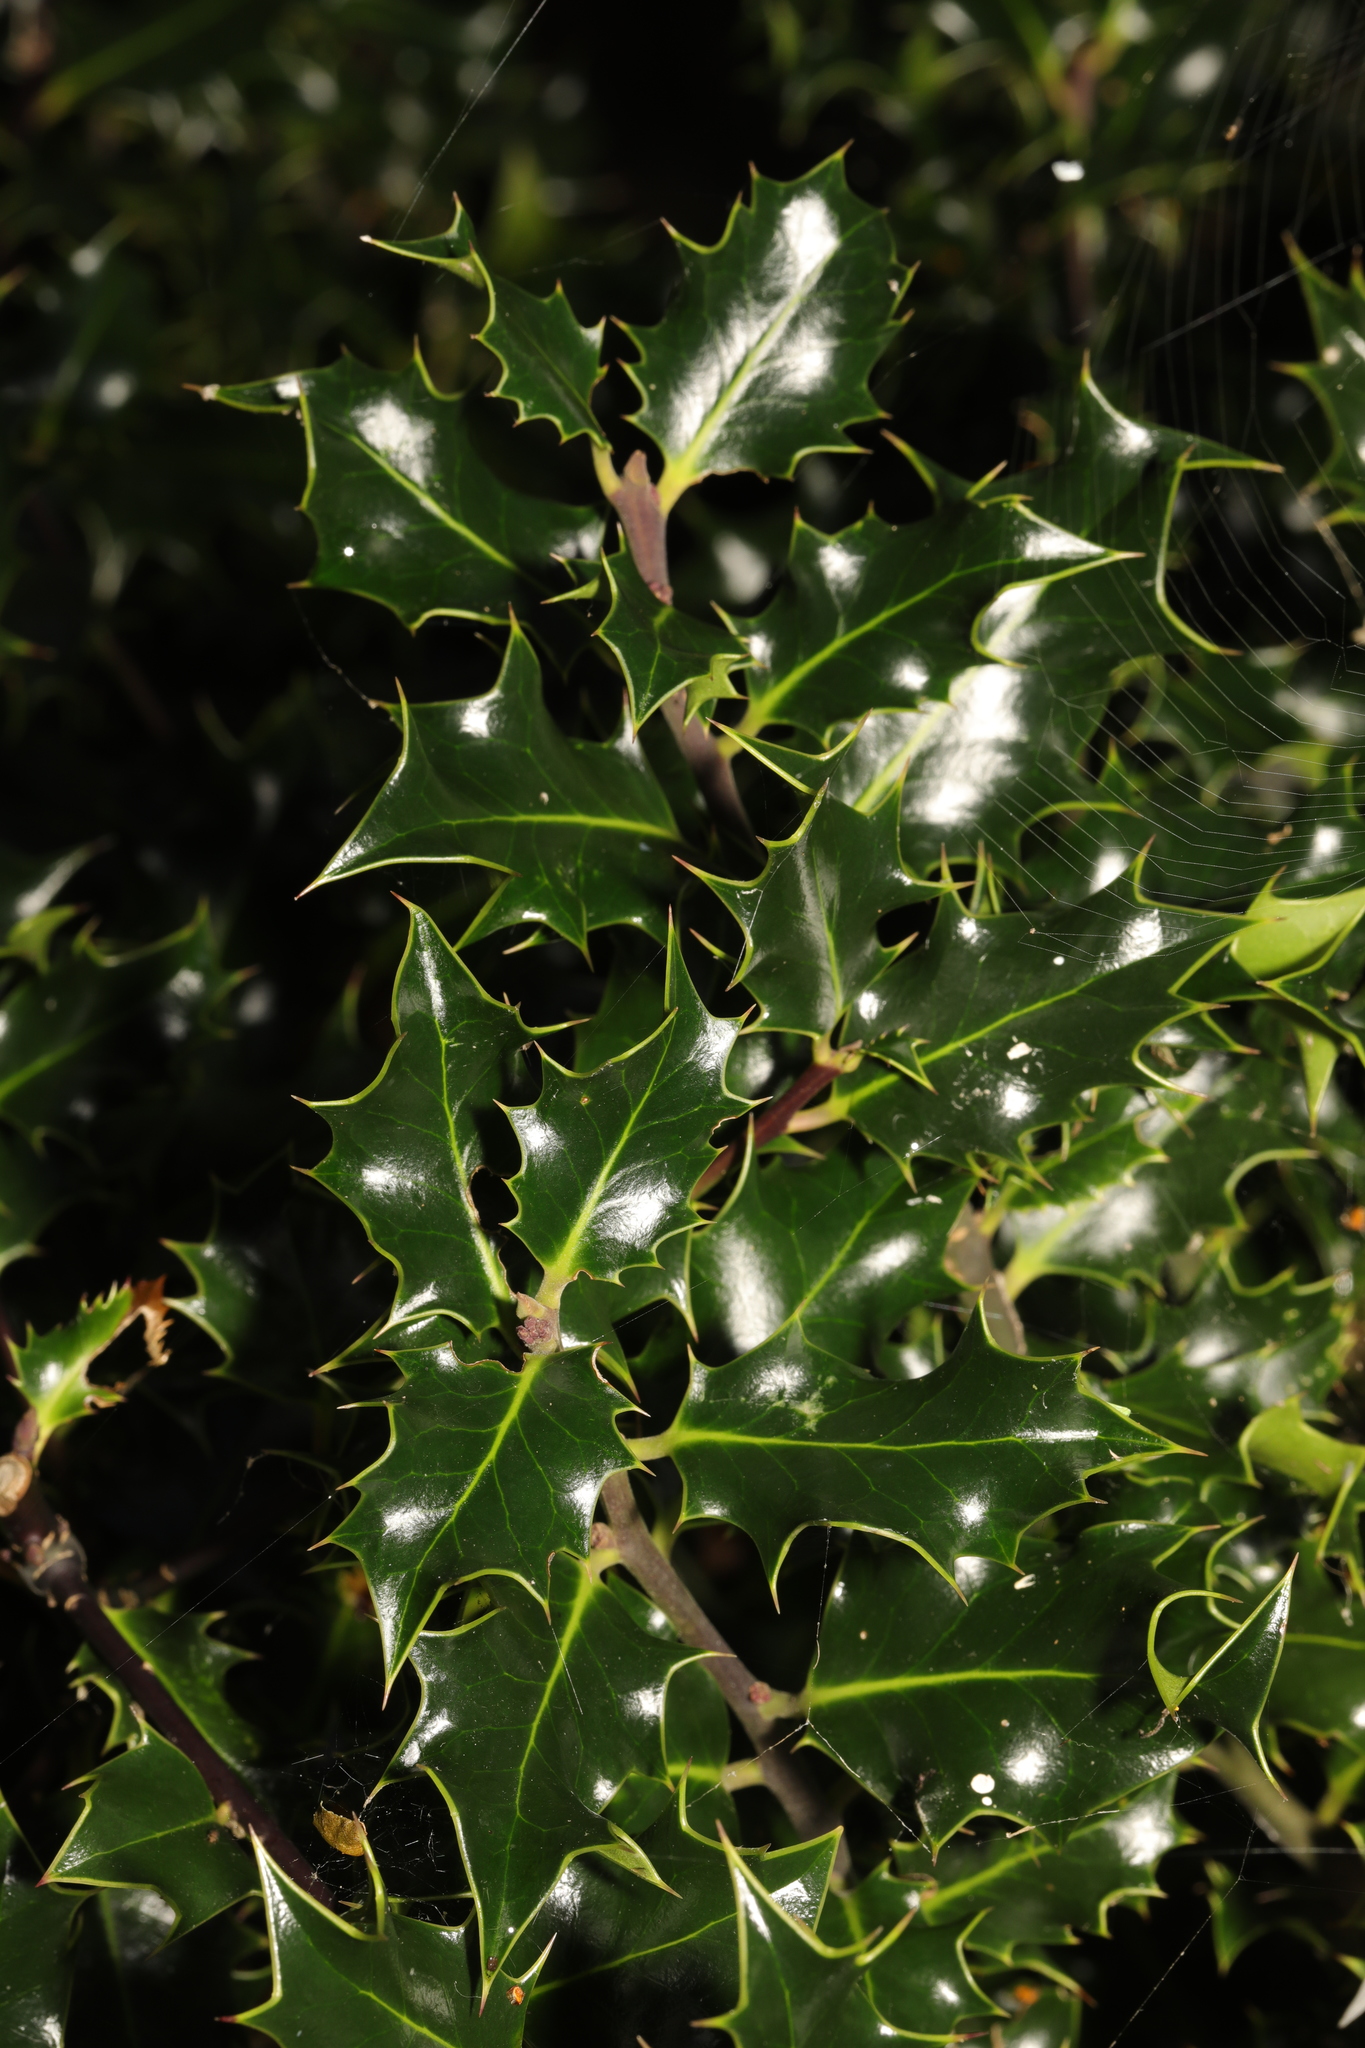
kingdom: Plantae
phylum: Tracheophyta
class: Magnoliopsida
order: Aquifoliales
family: Aquifoliaceae
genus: Ilex
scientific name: Ilex aquifolium
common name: English holly
